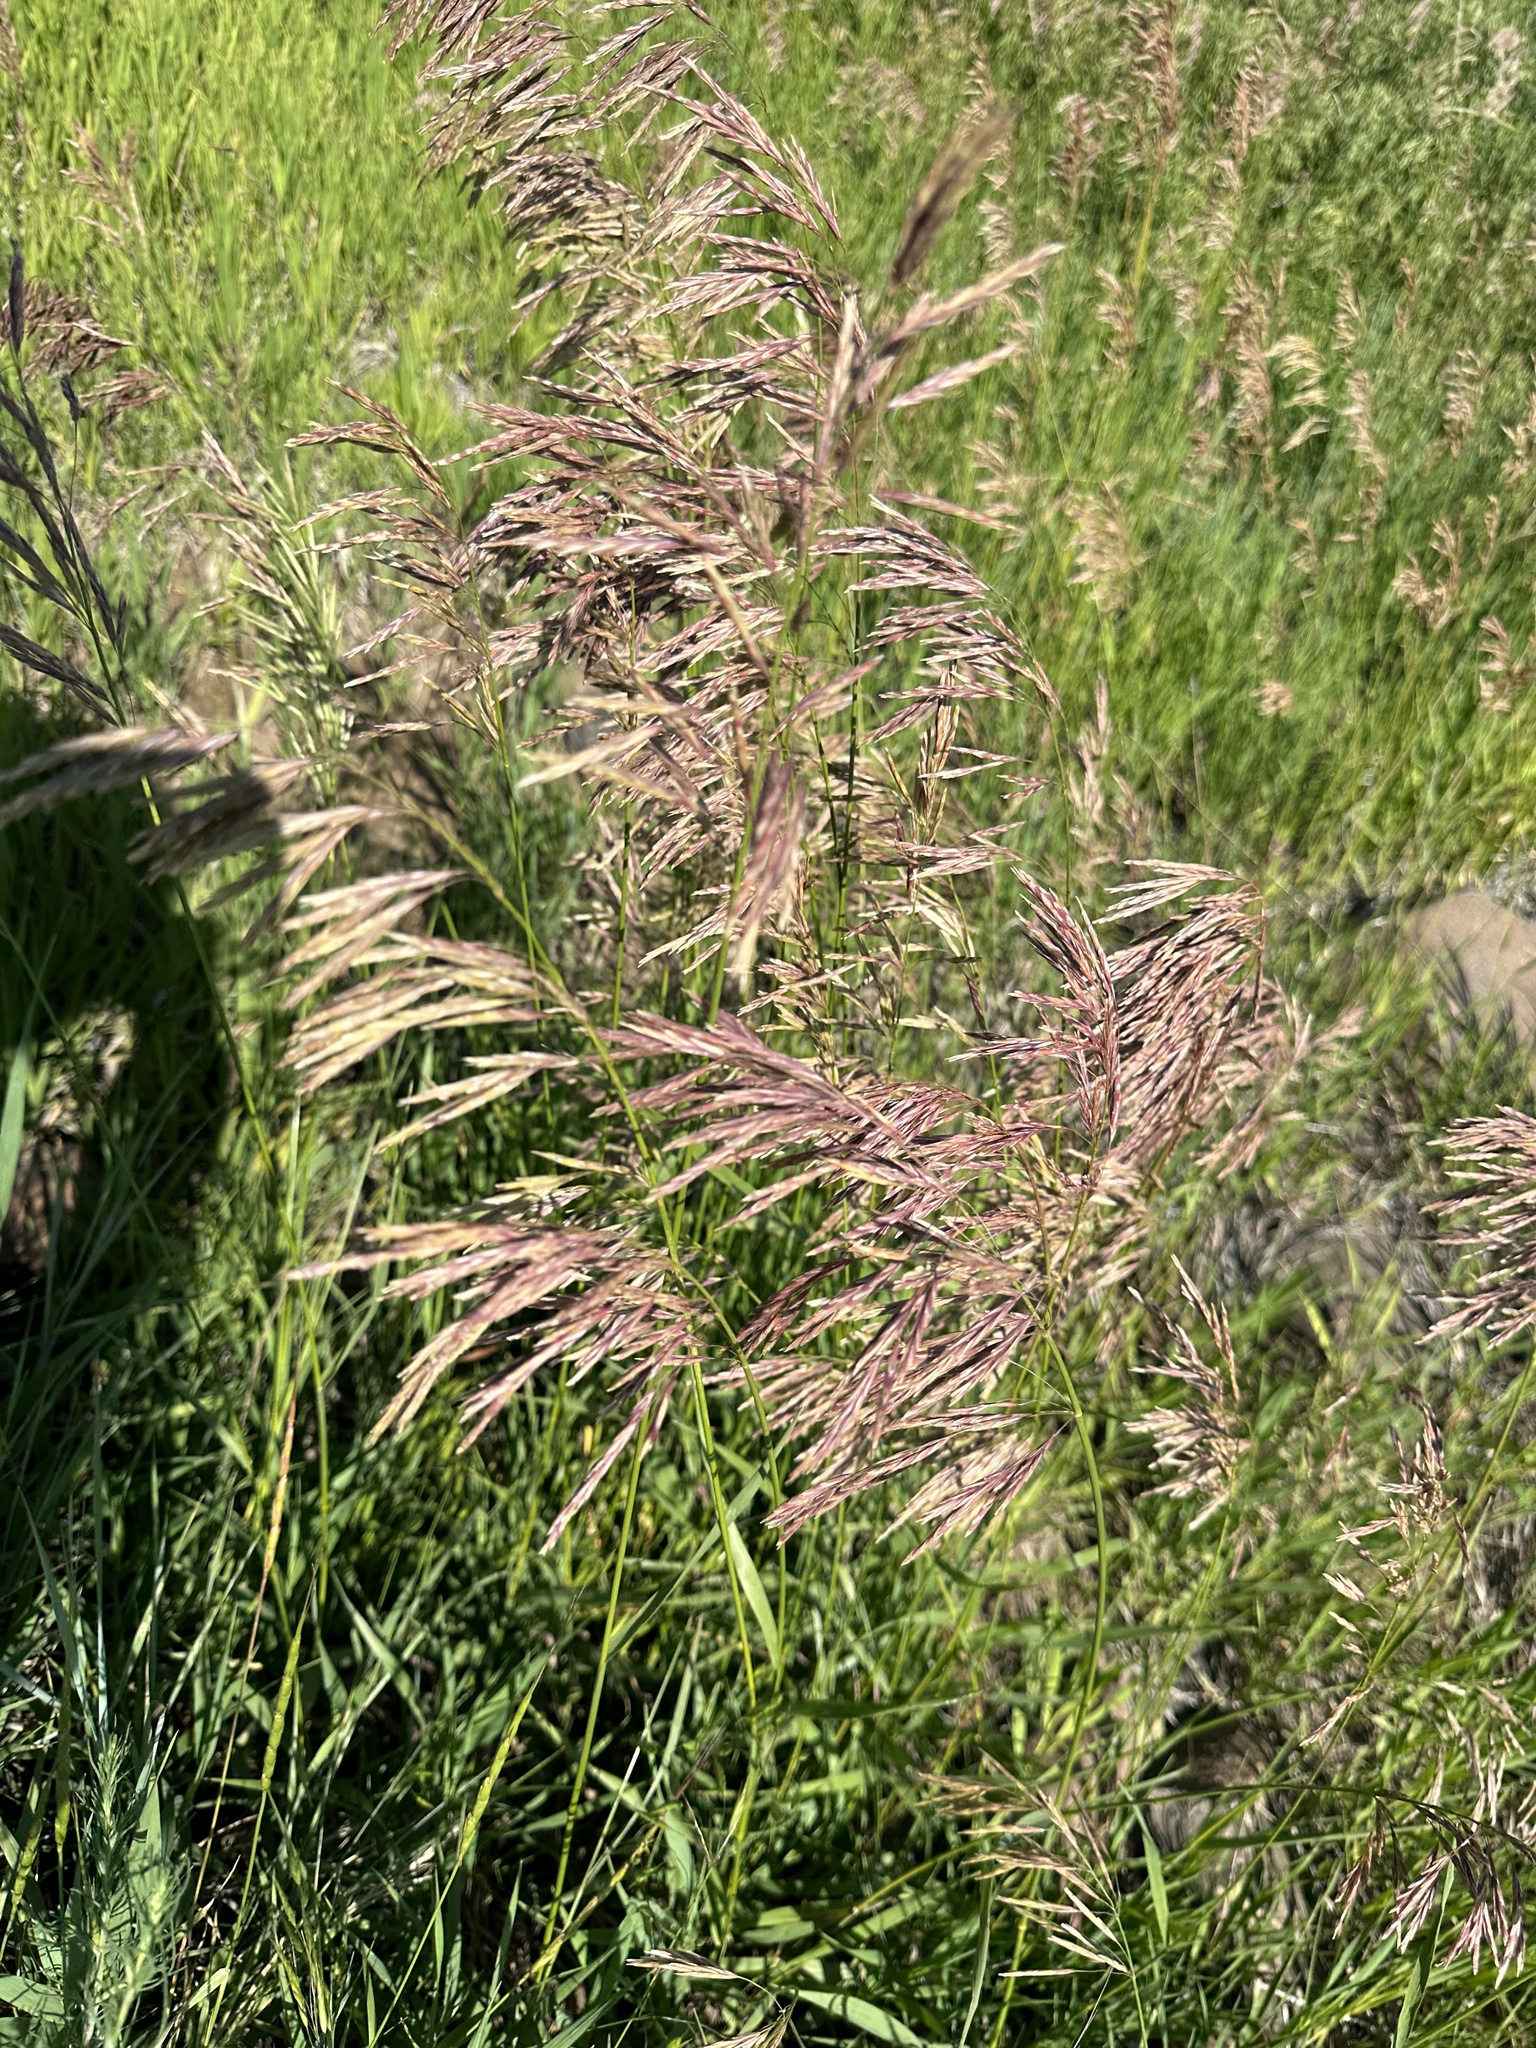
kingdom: Plantae
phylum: Tracheophyta
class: Liliopsida
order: Poales
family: Poaceae
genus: Bromus
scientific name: Bromus inermis
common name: Smooth brome
